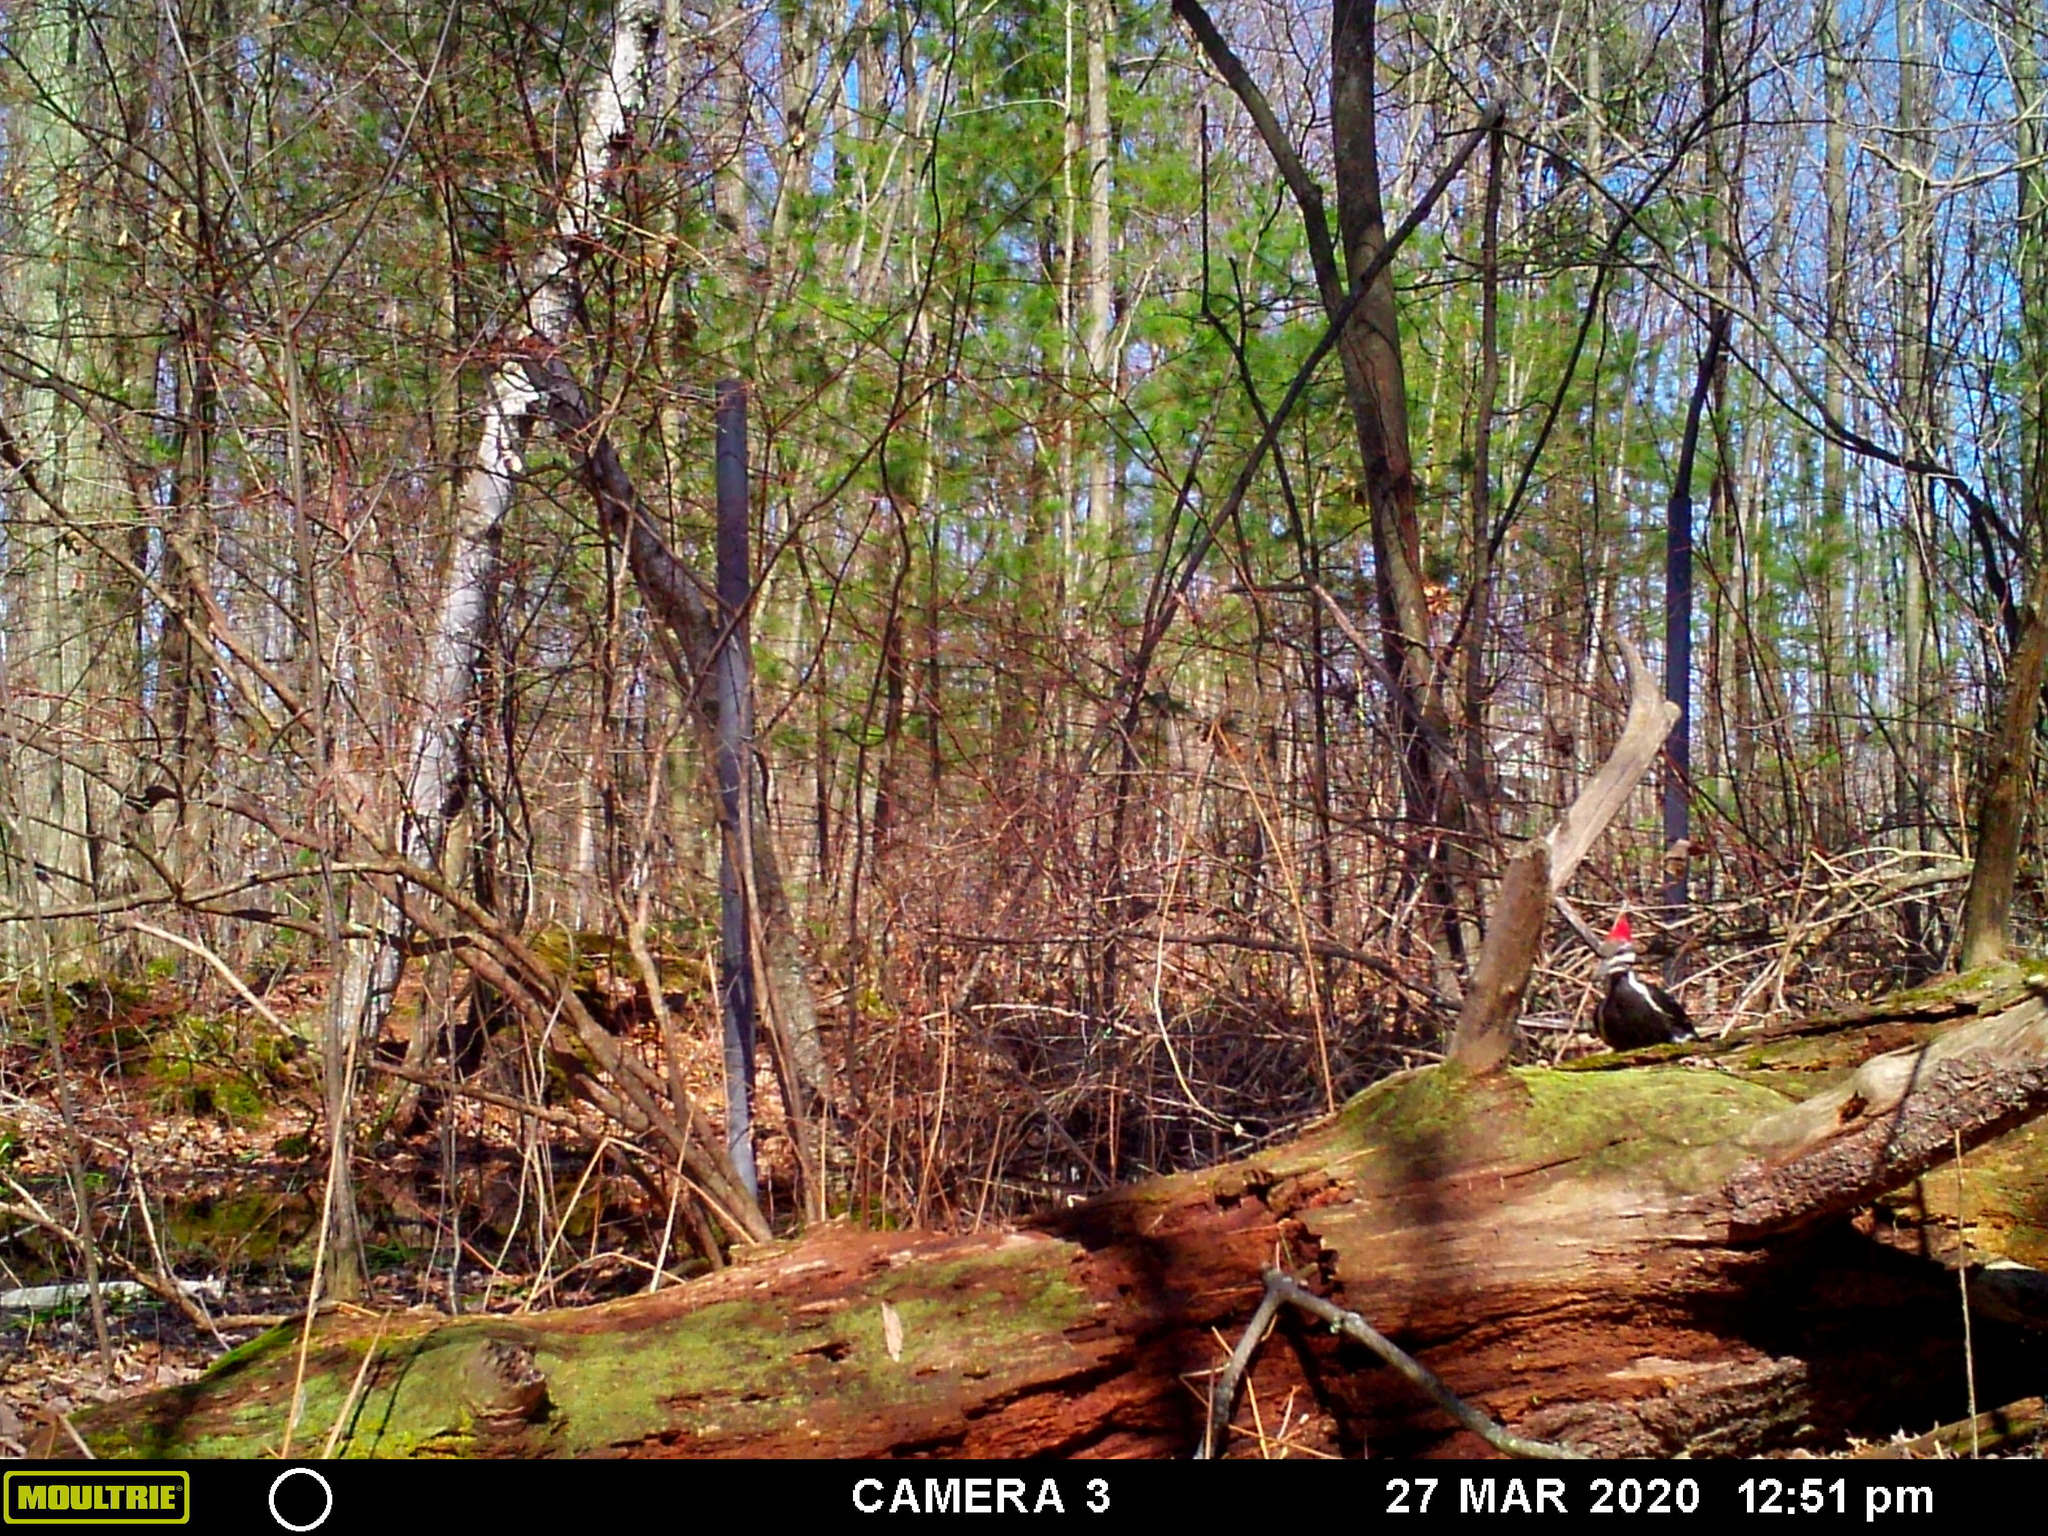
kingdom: Animalia
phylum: Chordata
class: Aves
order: Piciformes
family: Picidae
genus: Dryocopus
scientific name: Dryocopus pileatus
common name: Pileated woodpecker
